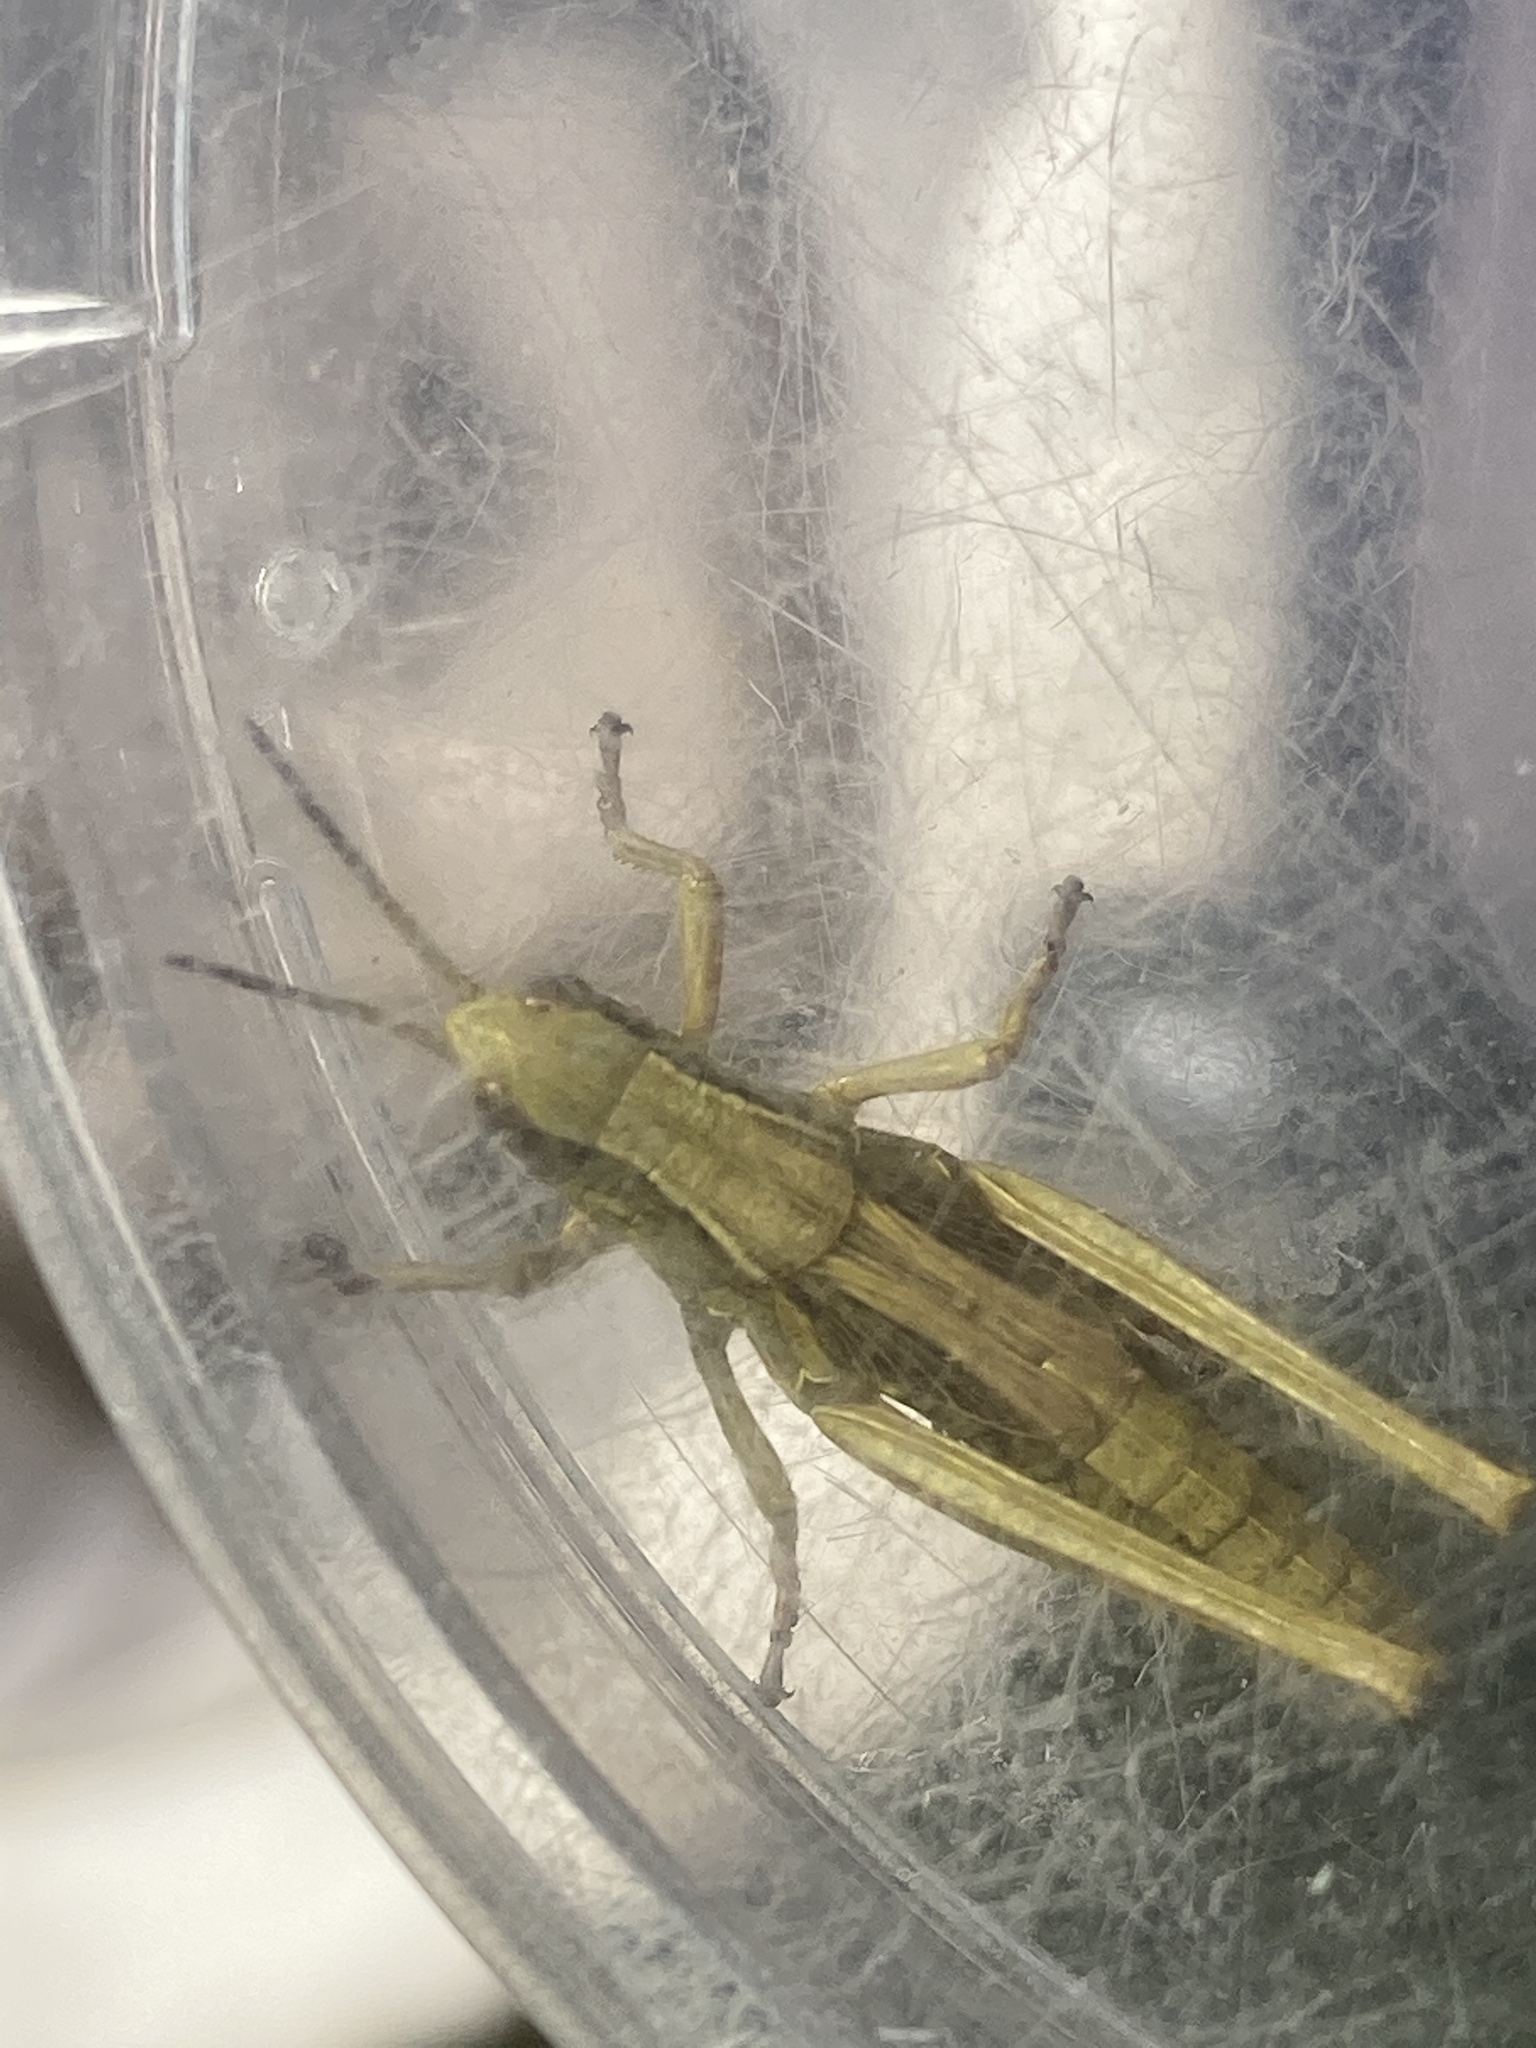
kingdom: Animalia
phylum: Arthropoda
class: Insecta
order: Orthoptera
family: Acrididae
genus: Stethophyma
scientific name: Stethophyma grossum
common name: Large marsh grasshopper
